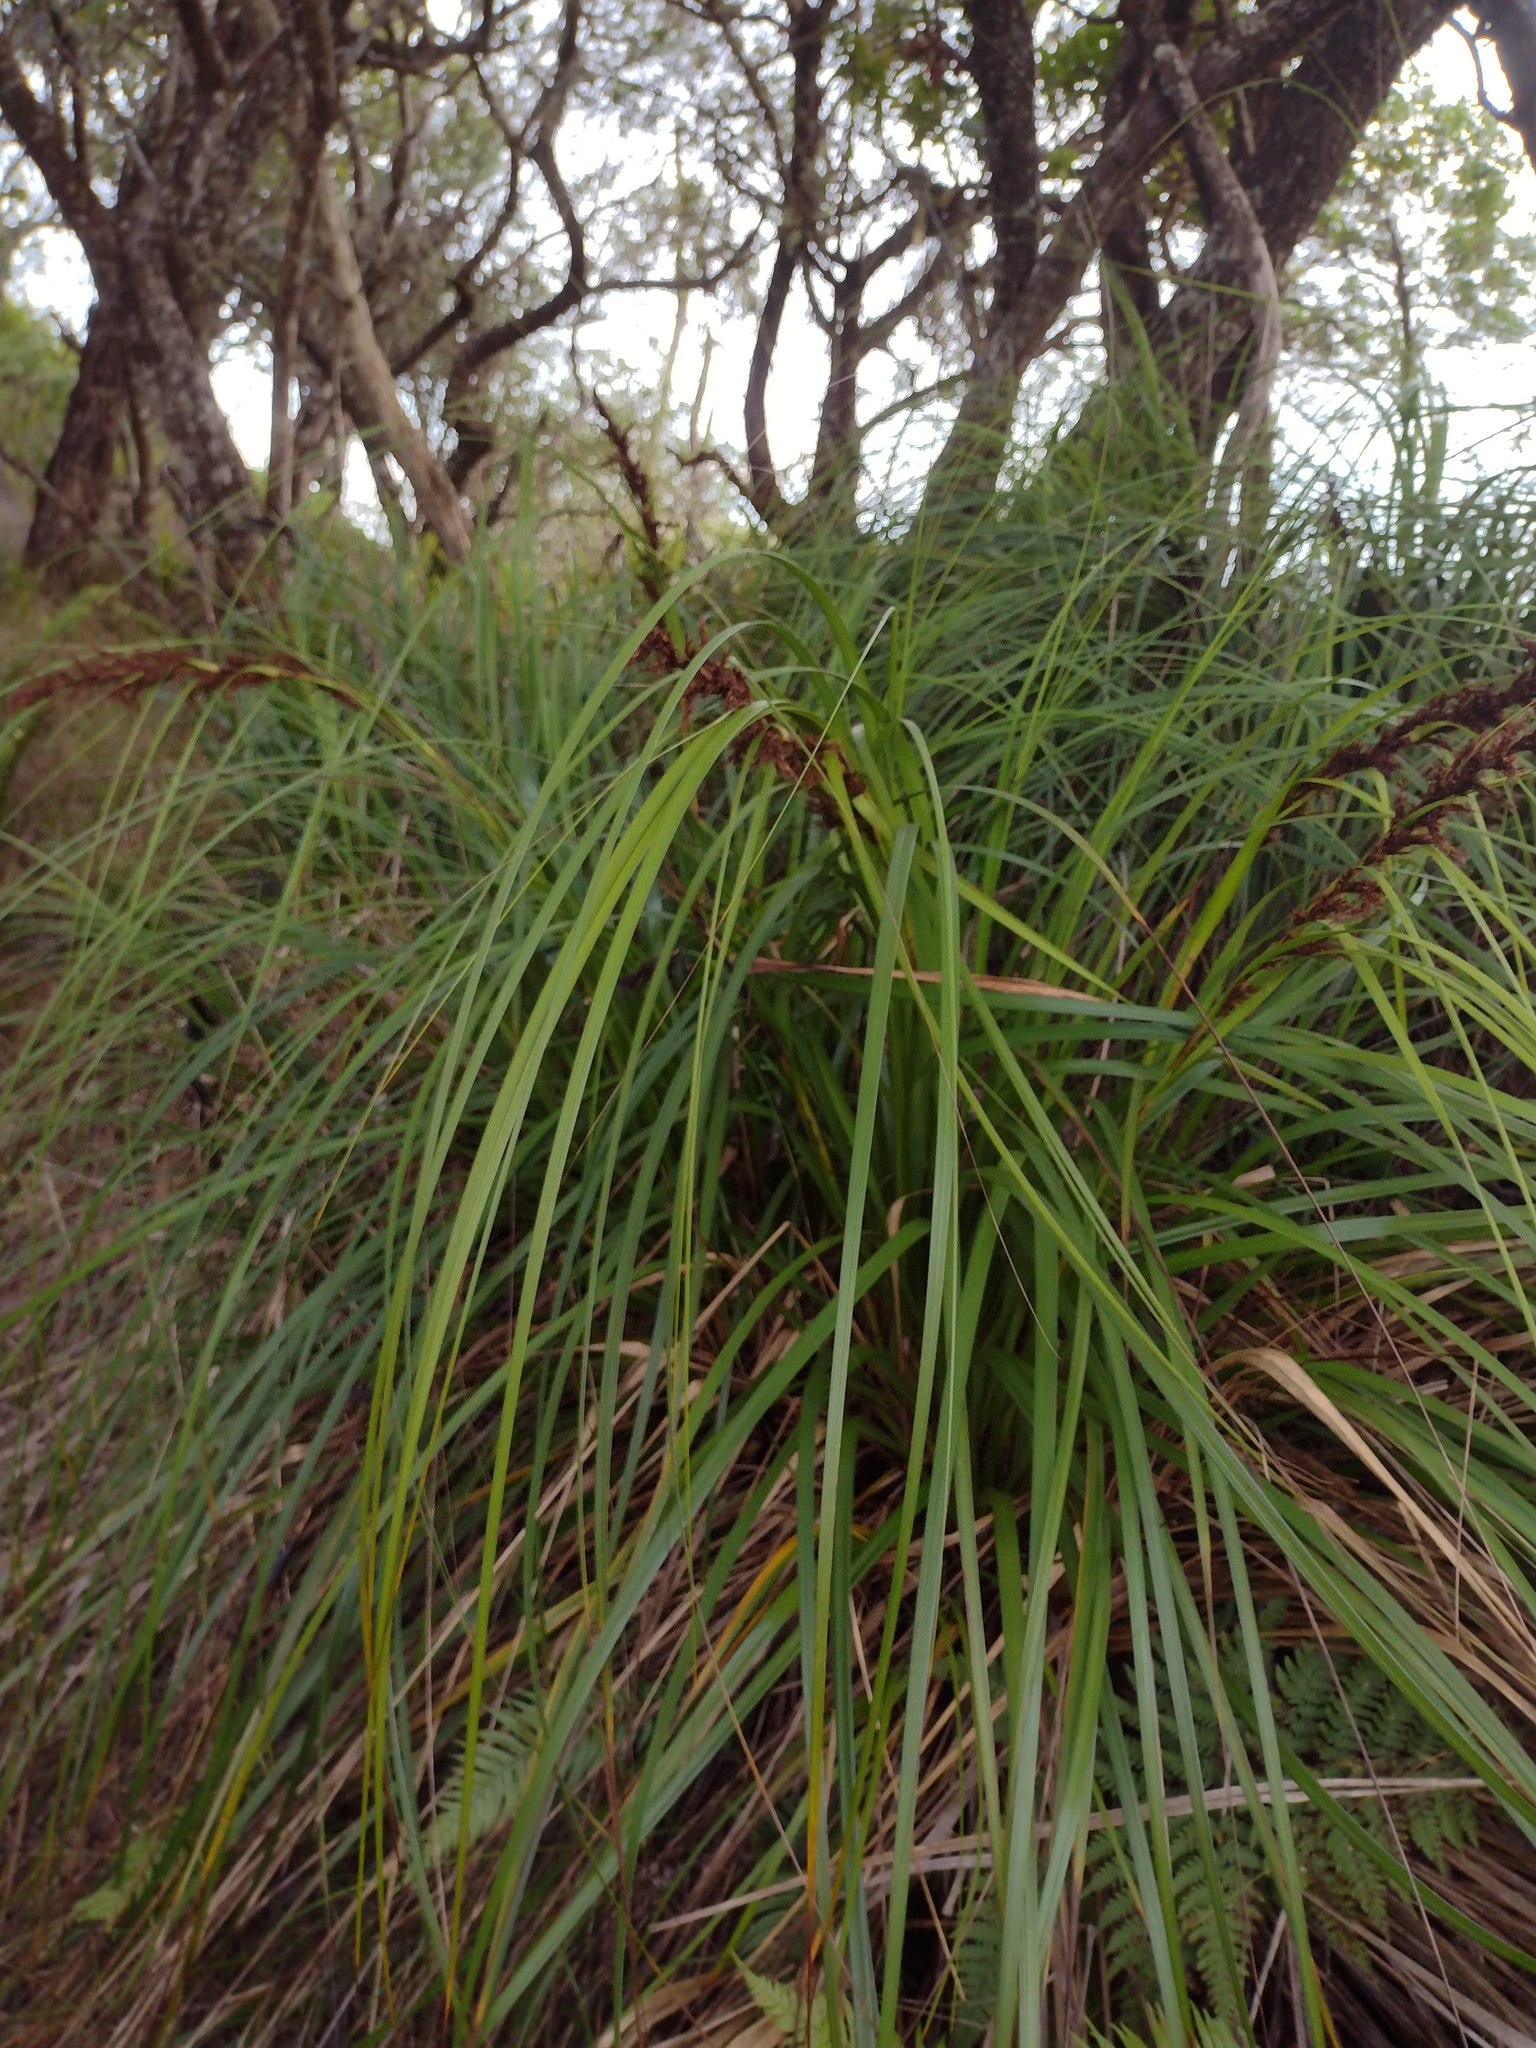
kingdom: Plantae
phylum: Tracheophyta
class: Liliopsida
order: Poales
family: Cyperaceae
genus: Gahnia
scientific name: Gahnia beecheyi
